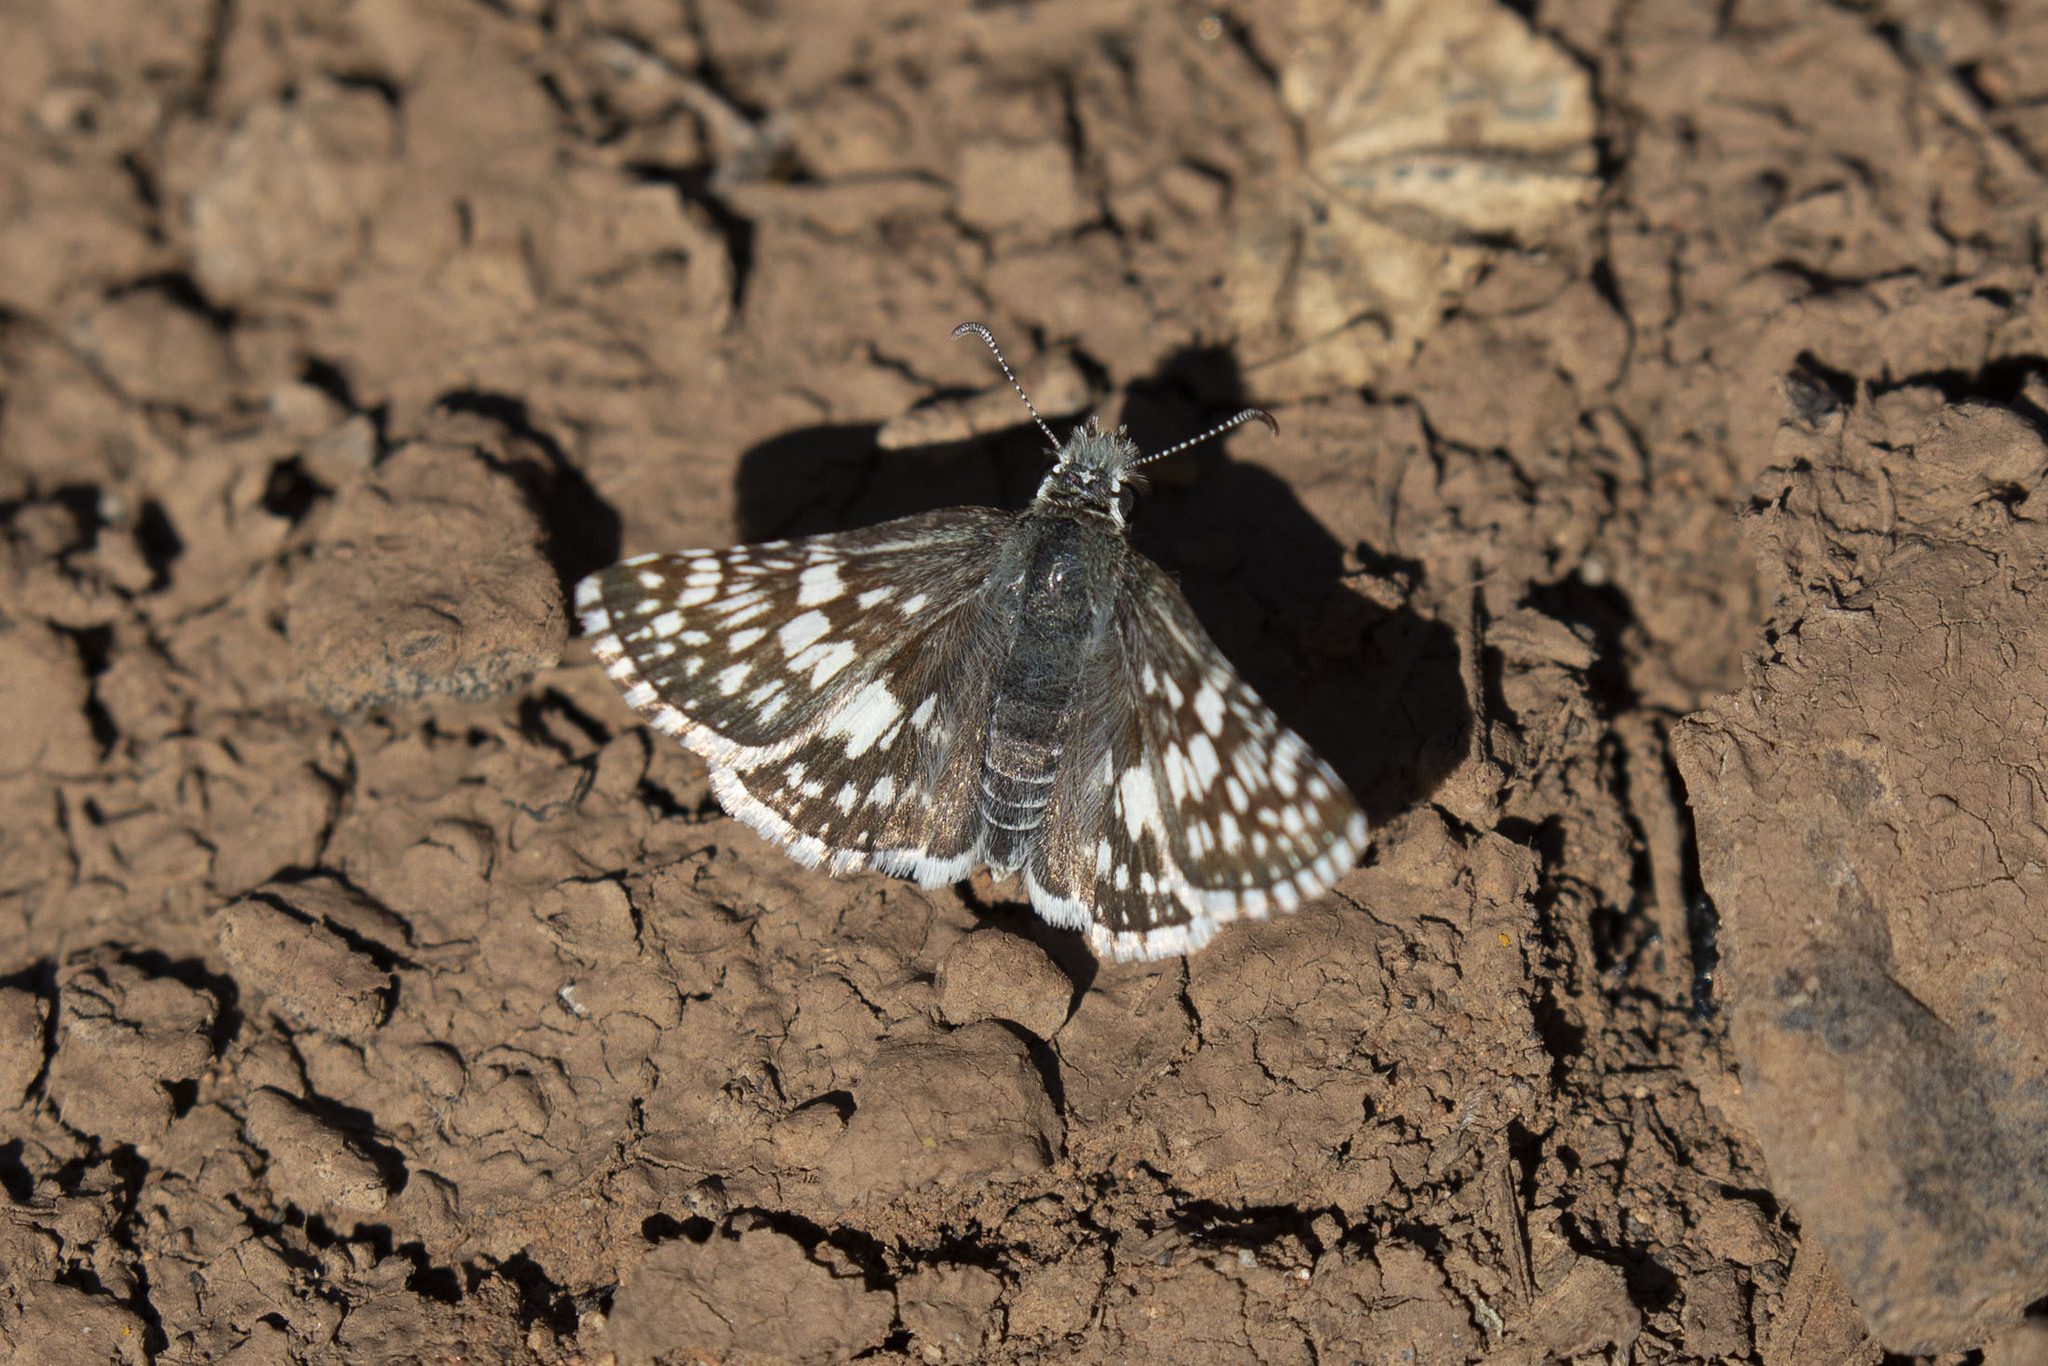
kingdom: Animalia
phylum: Arthropoda
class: Insecta
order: Lepidoptera
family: Hesperiidae
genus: Burnsius
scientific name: Burnsius albezens
